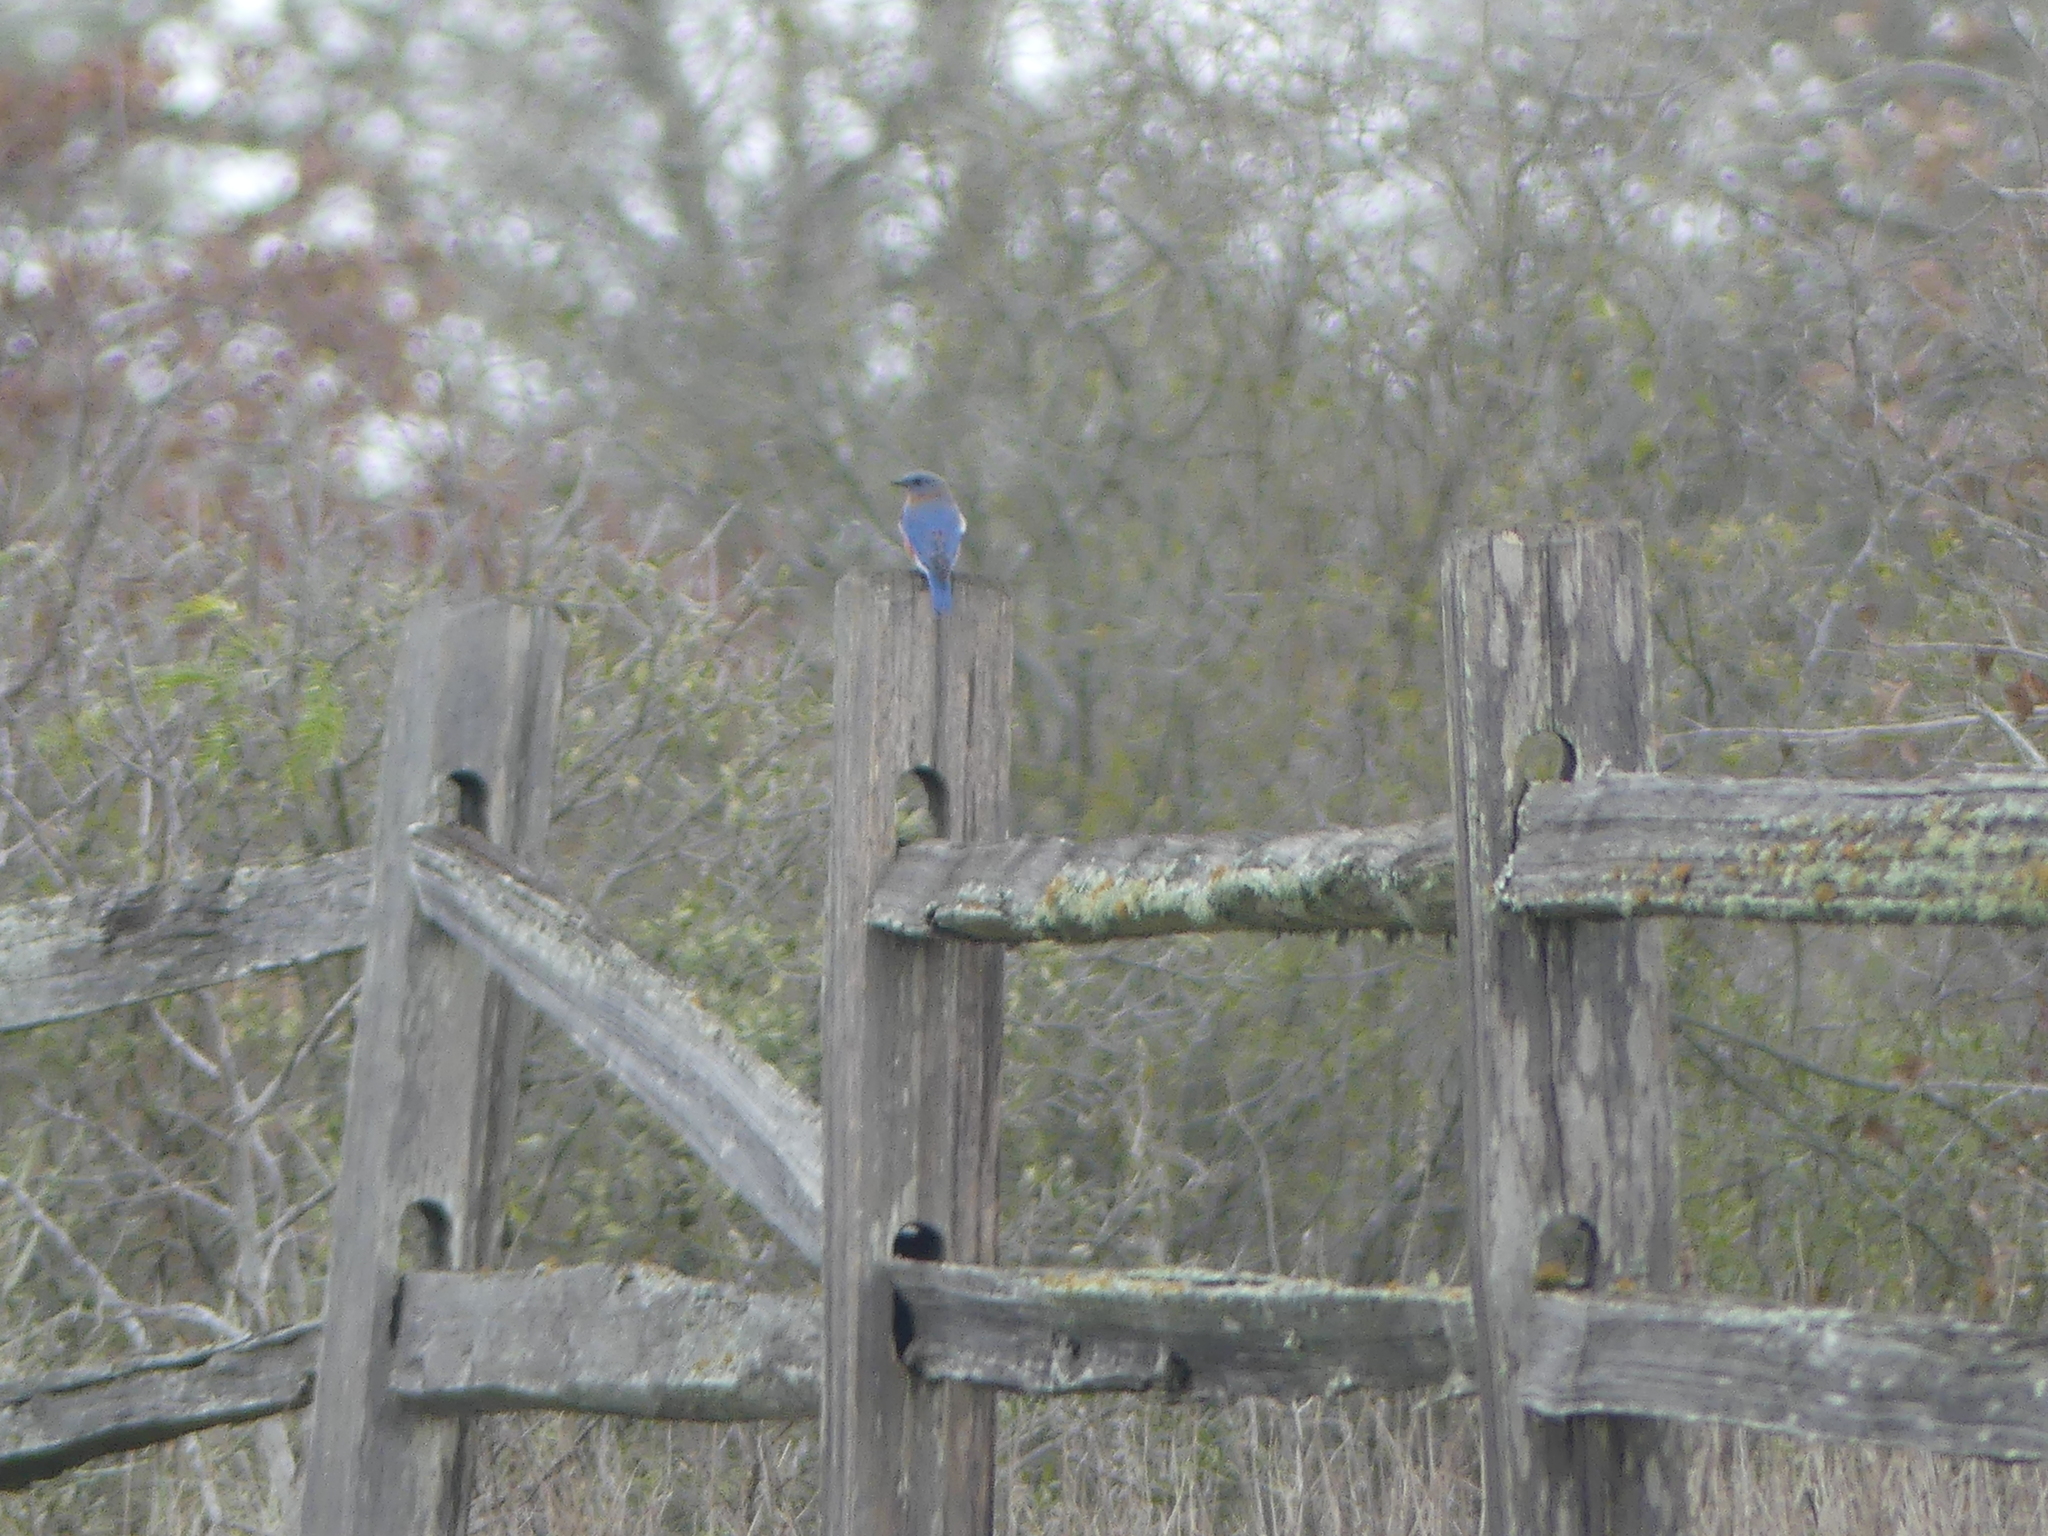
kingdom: Animalia
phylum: Chordata
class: Aves
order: Passeriformes
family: Turdidae
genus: Sialia
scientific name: Sialia sialis
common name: Eastern bluebird
